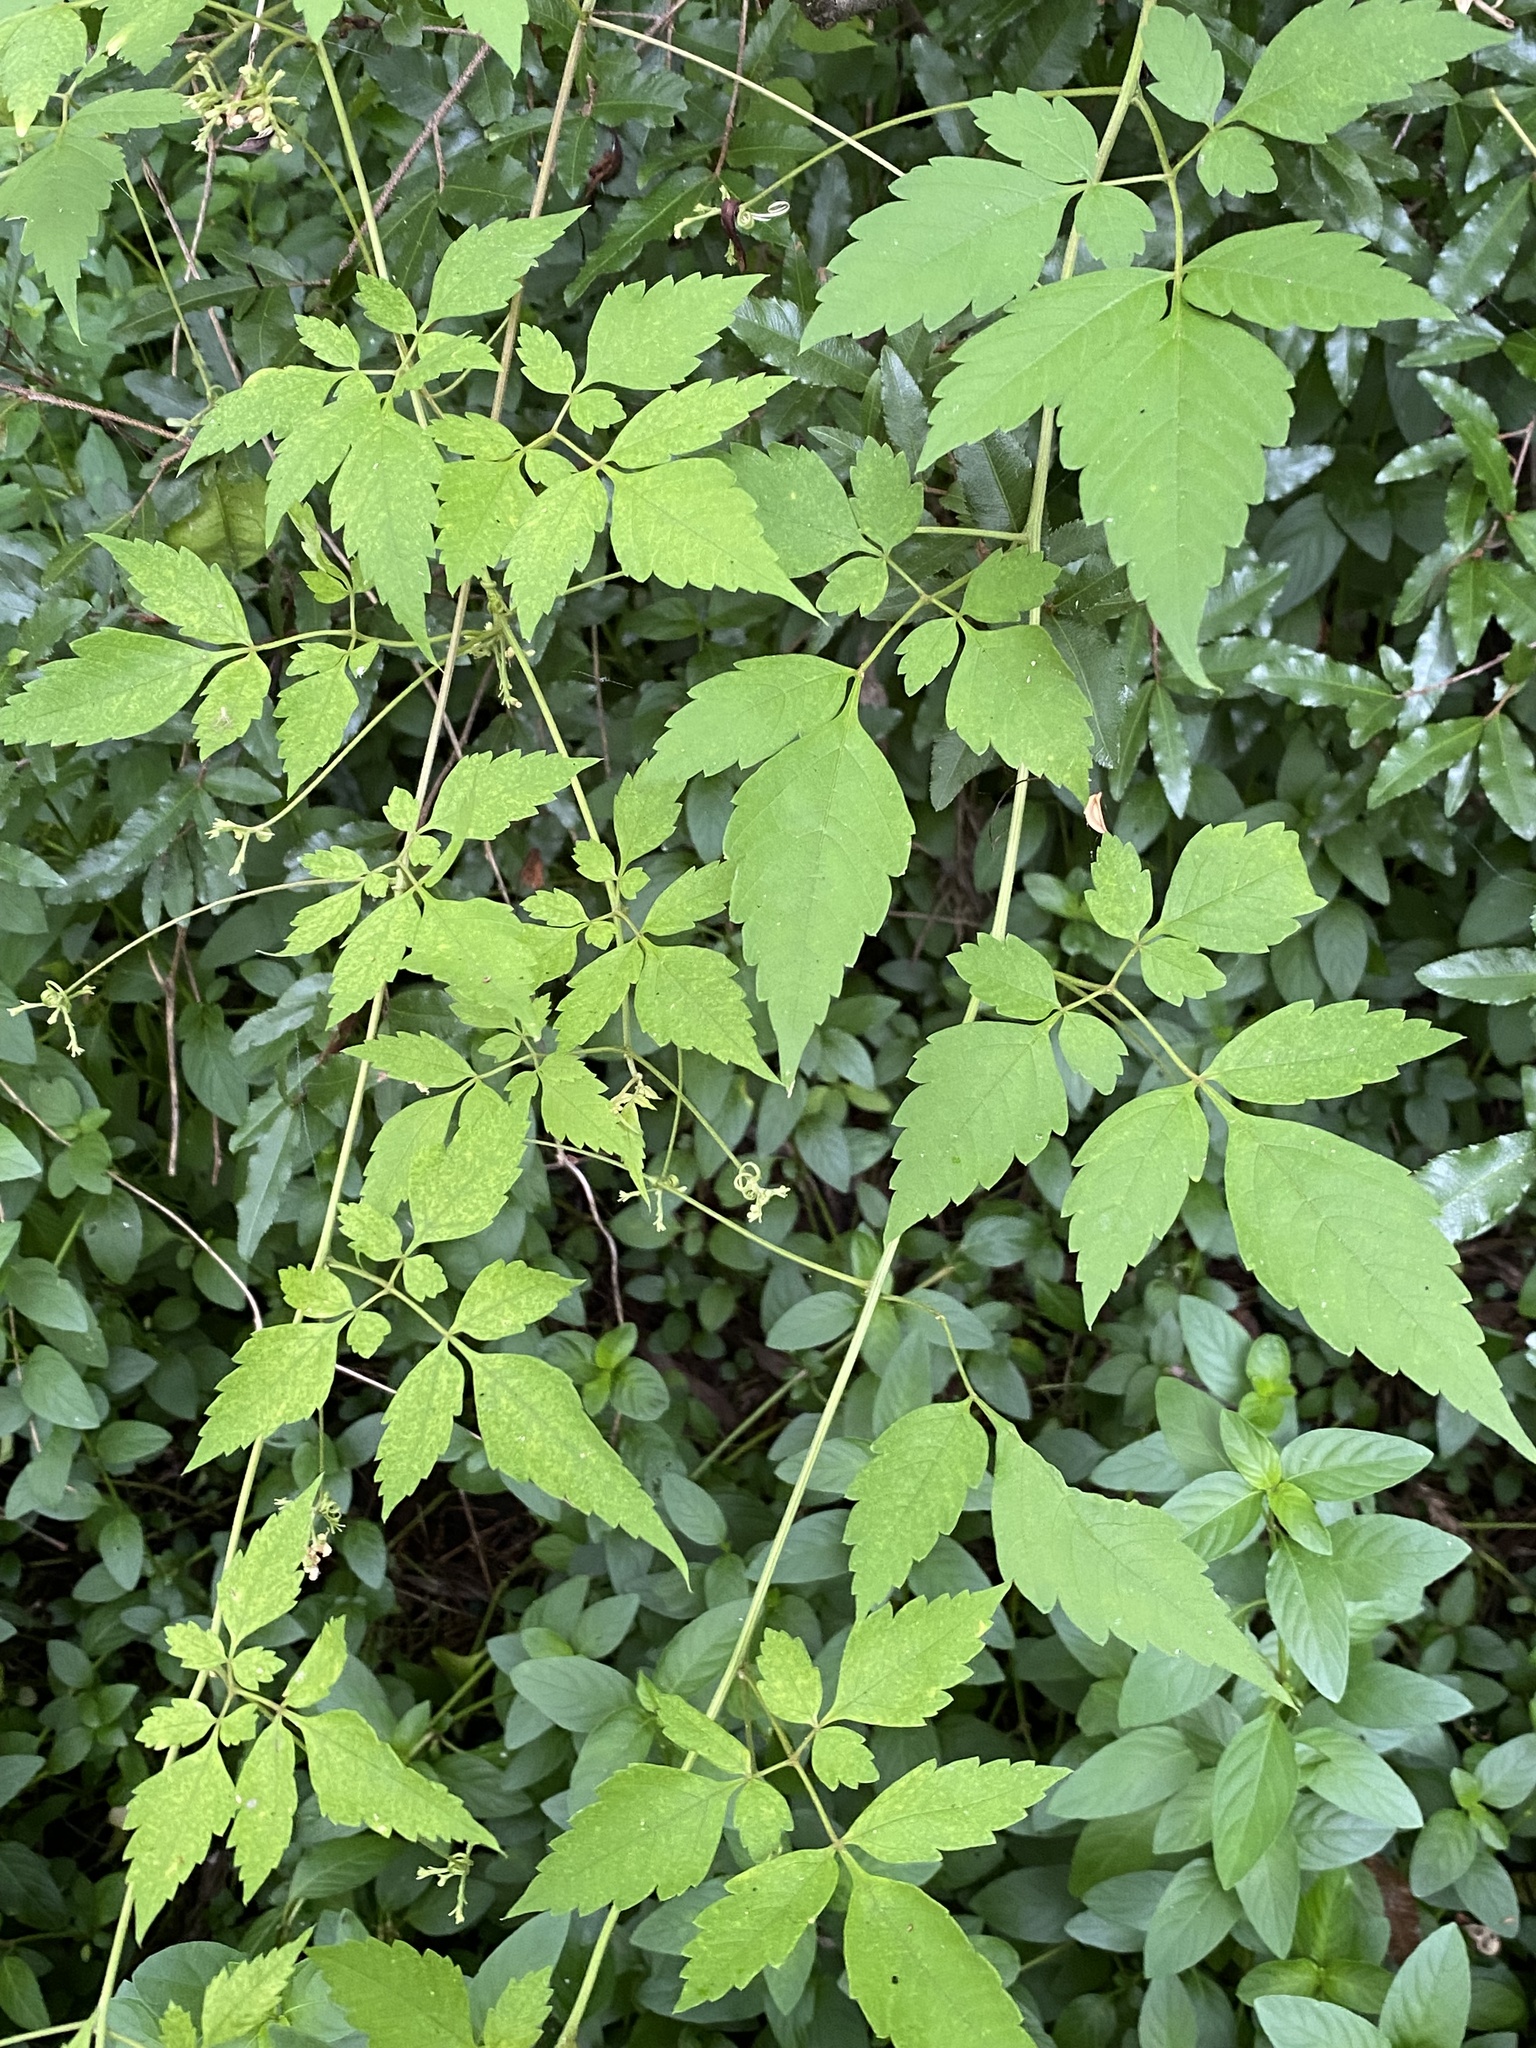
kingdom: Plantae
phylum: Tracheophyta
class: Magnoliopsida
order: Sapindales
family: Sapindaceae
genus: Cardiospermum
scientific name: Cardiospermum grandiflorum
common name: Balloon vine
